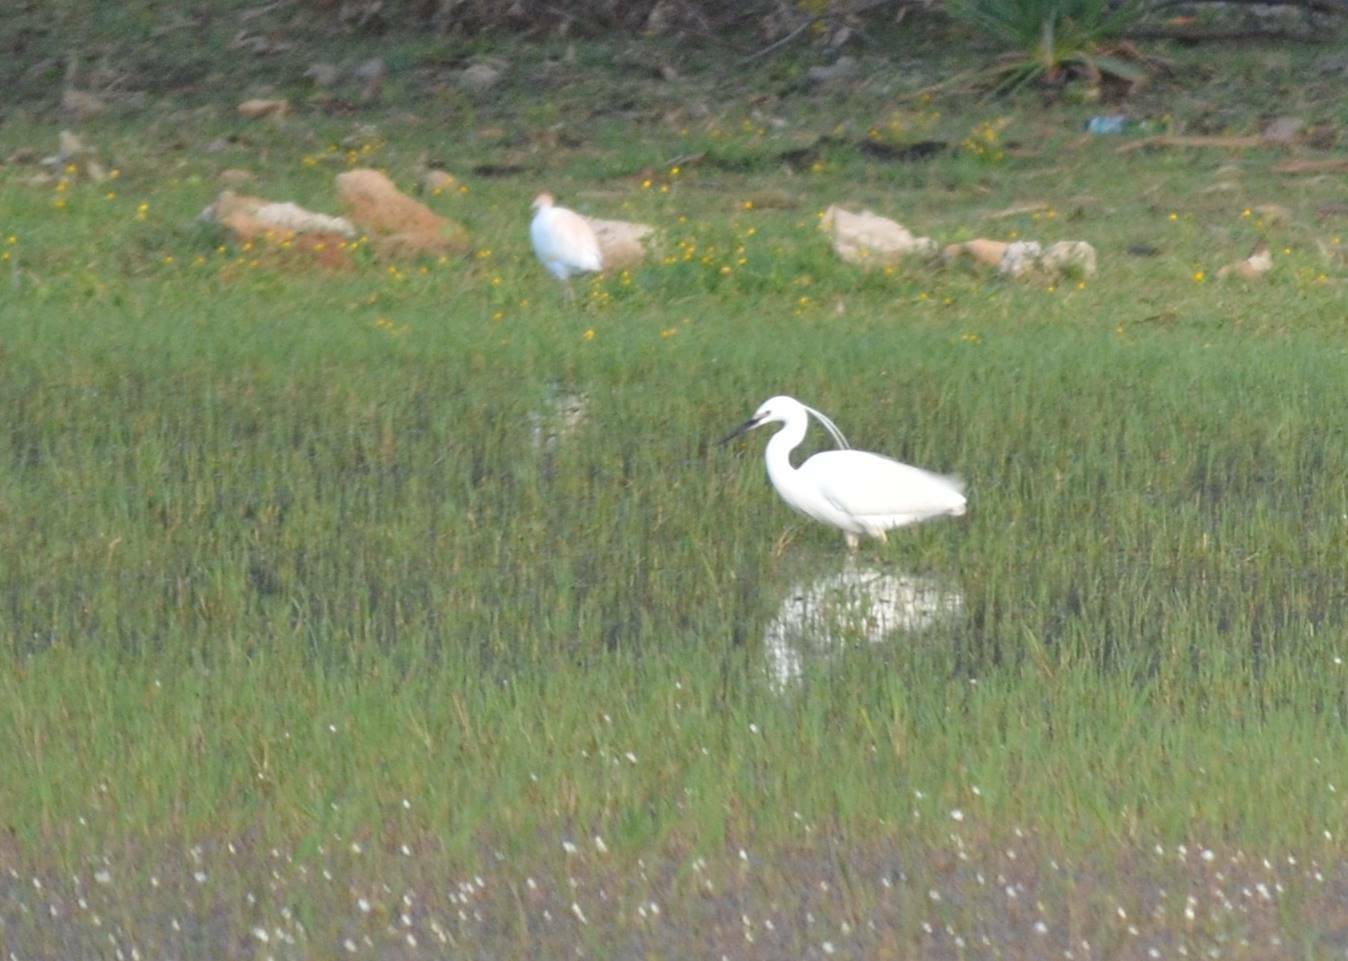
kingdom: Animalia
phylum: Chordata
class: Aves
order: Pelecaniformes
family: Ardeidae
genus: Egretta
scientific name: Egretta garzetta
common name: Little egret
